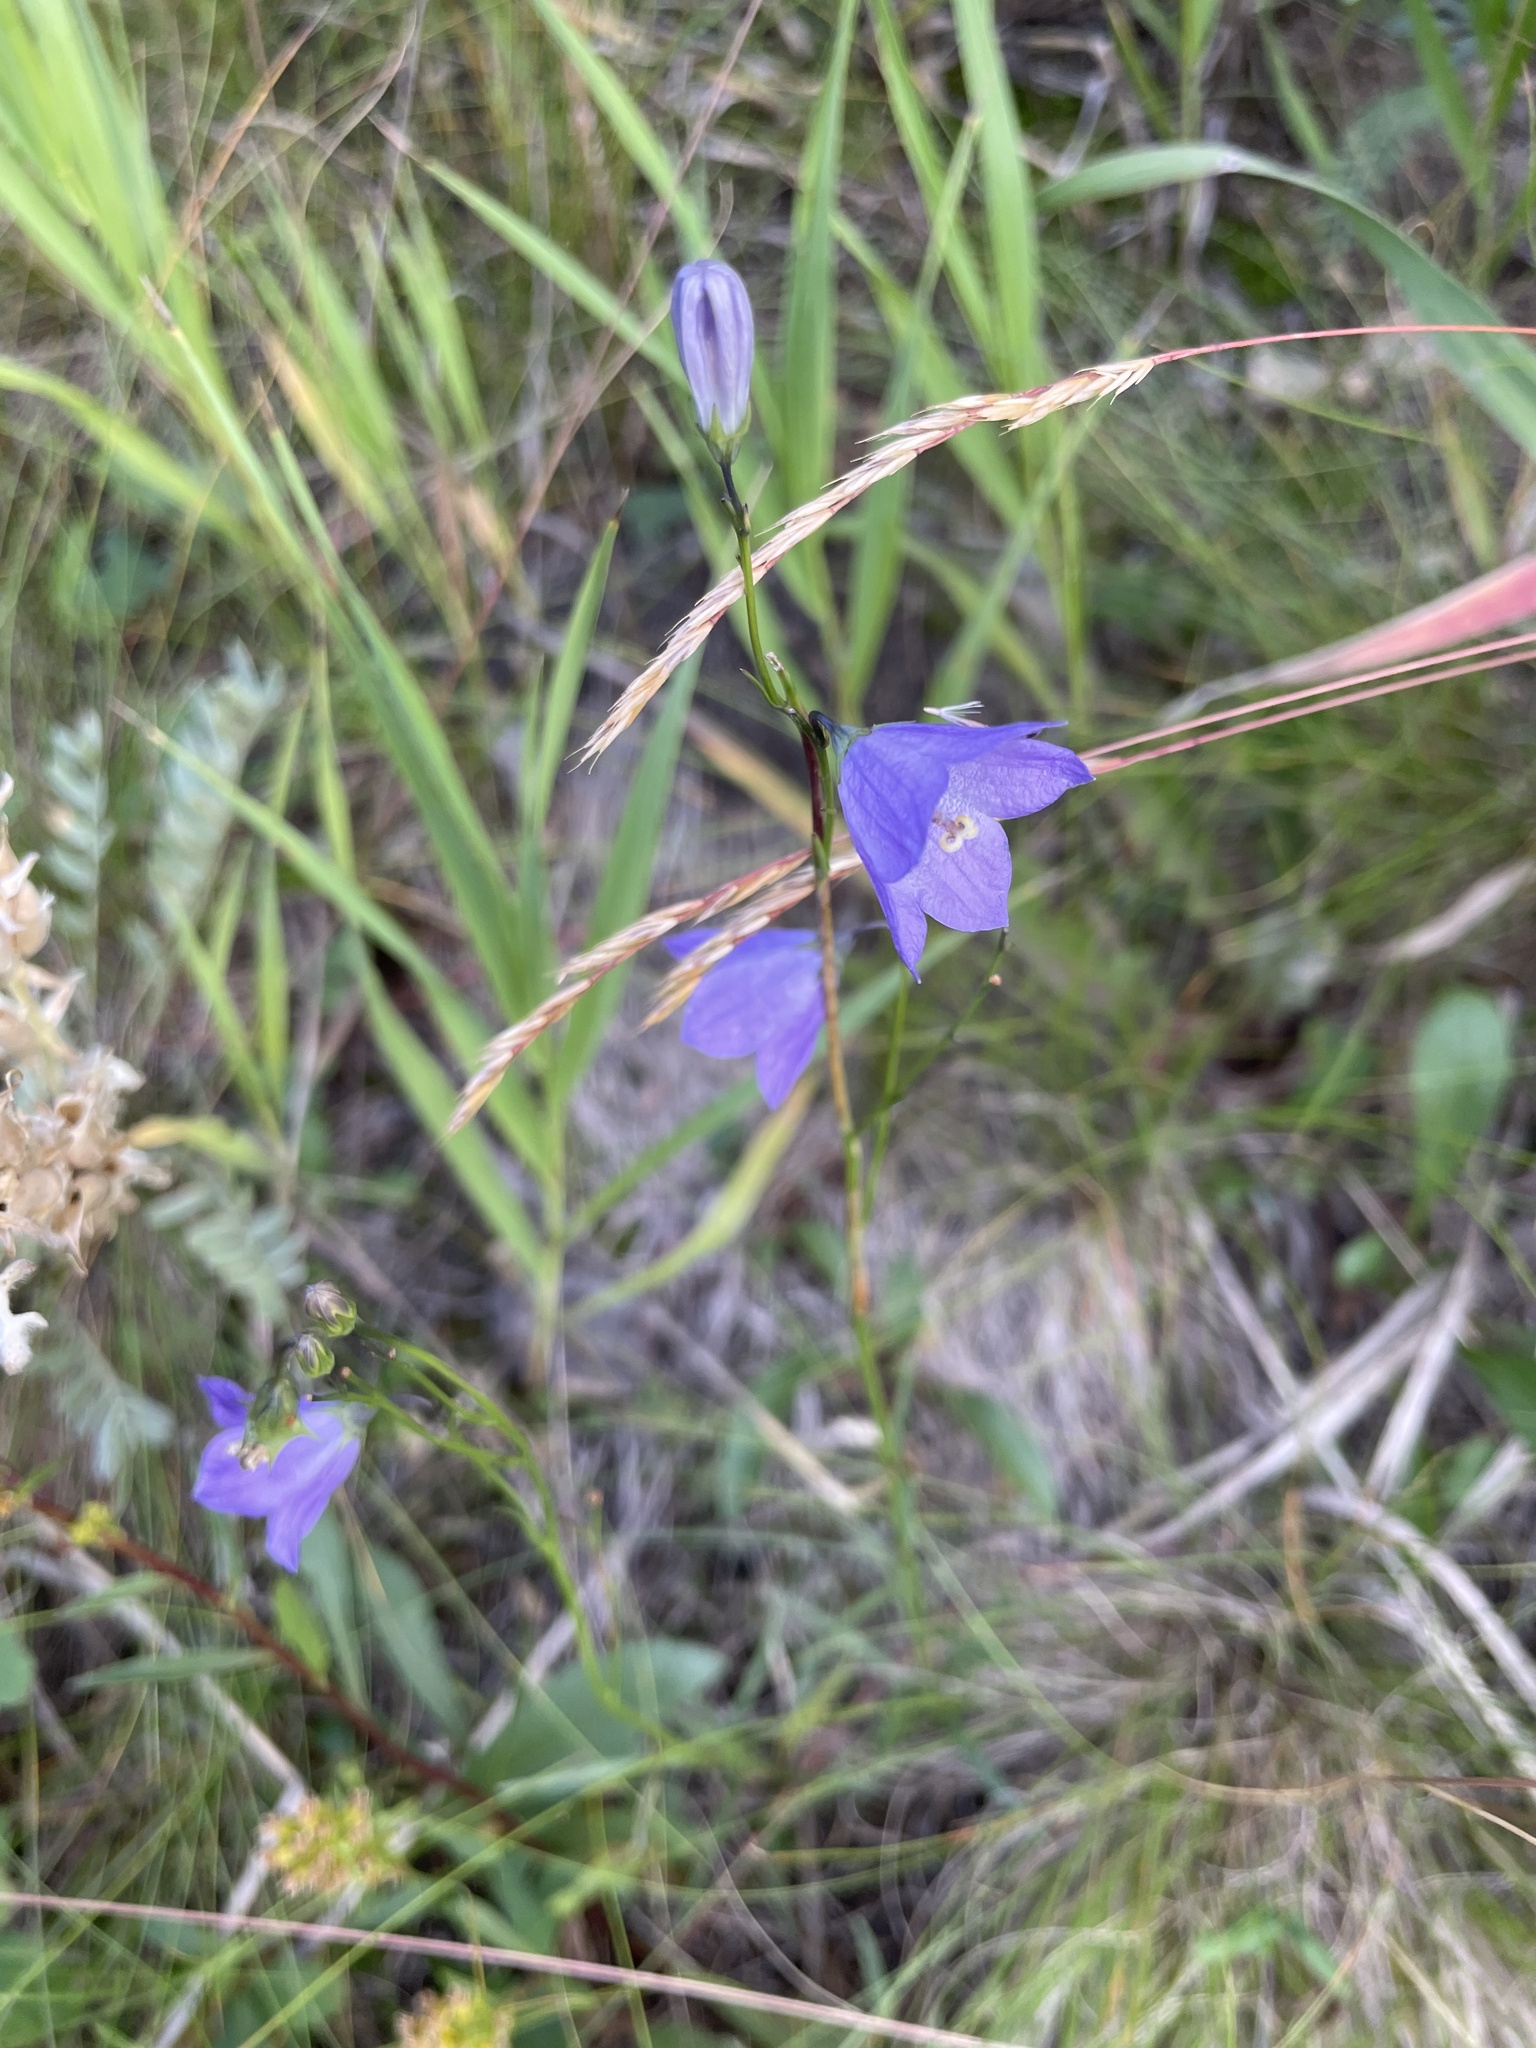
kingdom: Plantae
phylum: Tracheophyta
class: Magnoliopsida
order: Asterales
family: Campanulaceae
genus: Campanula
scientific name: Campanula petiolata
